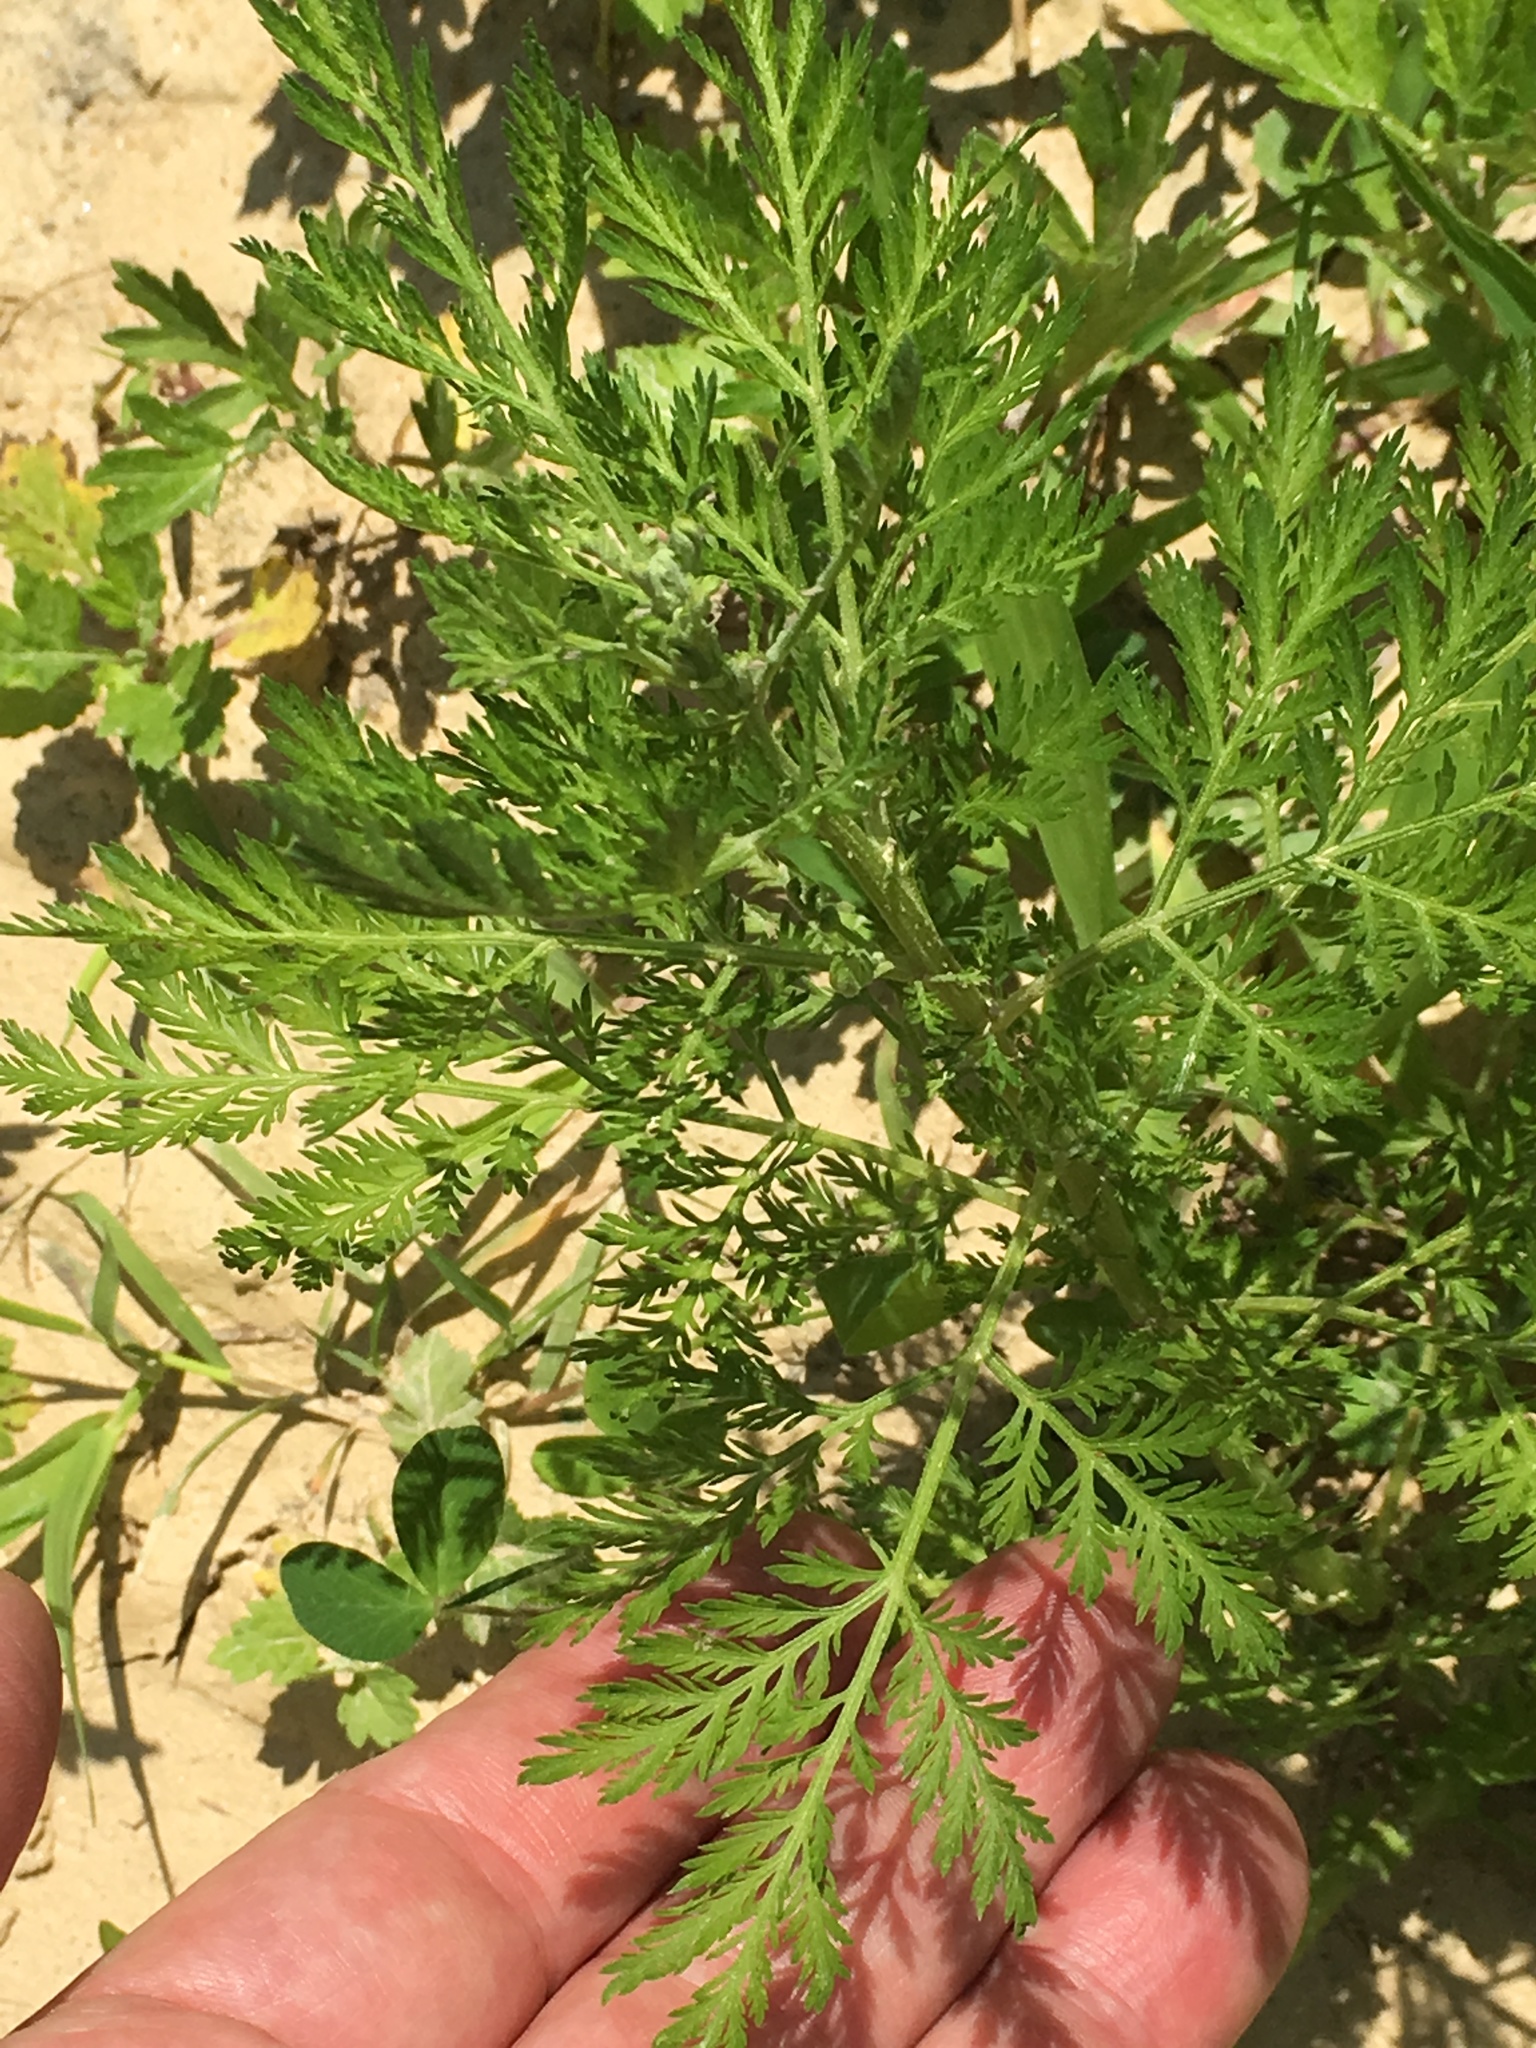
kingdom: Plantae
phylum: Tracheophyta
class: Magnoliopsida
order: Asterales
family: Asteraceae
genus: Artemisia
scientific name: Artemisia annua
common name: Sweet sagewort
